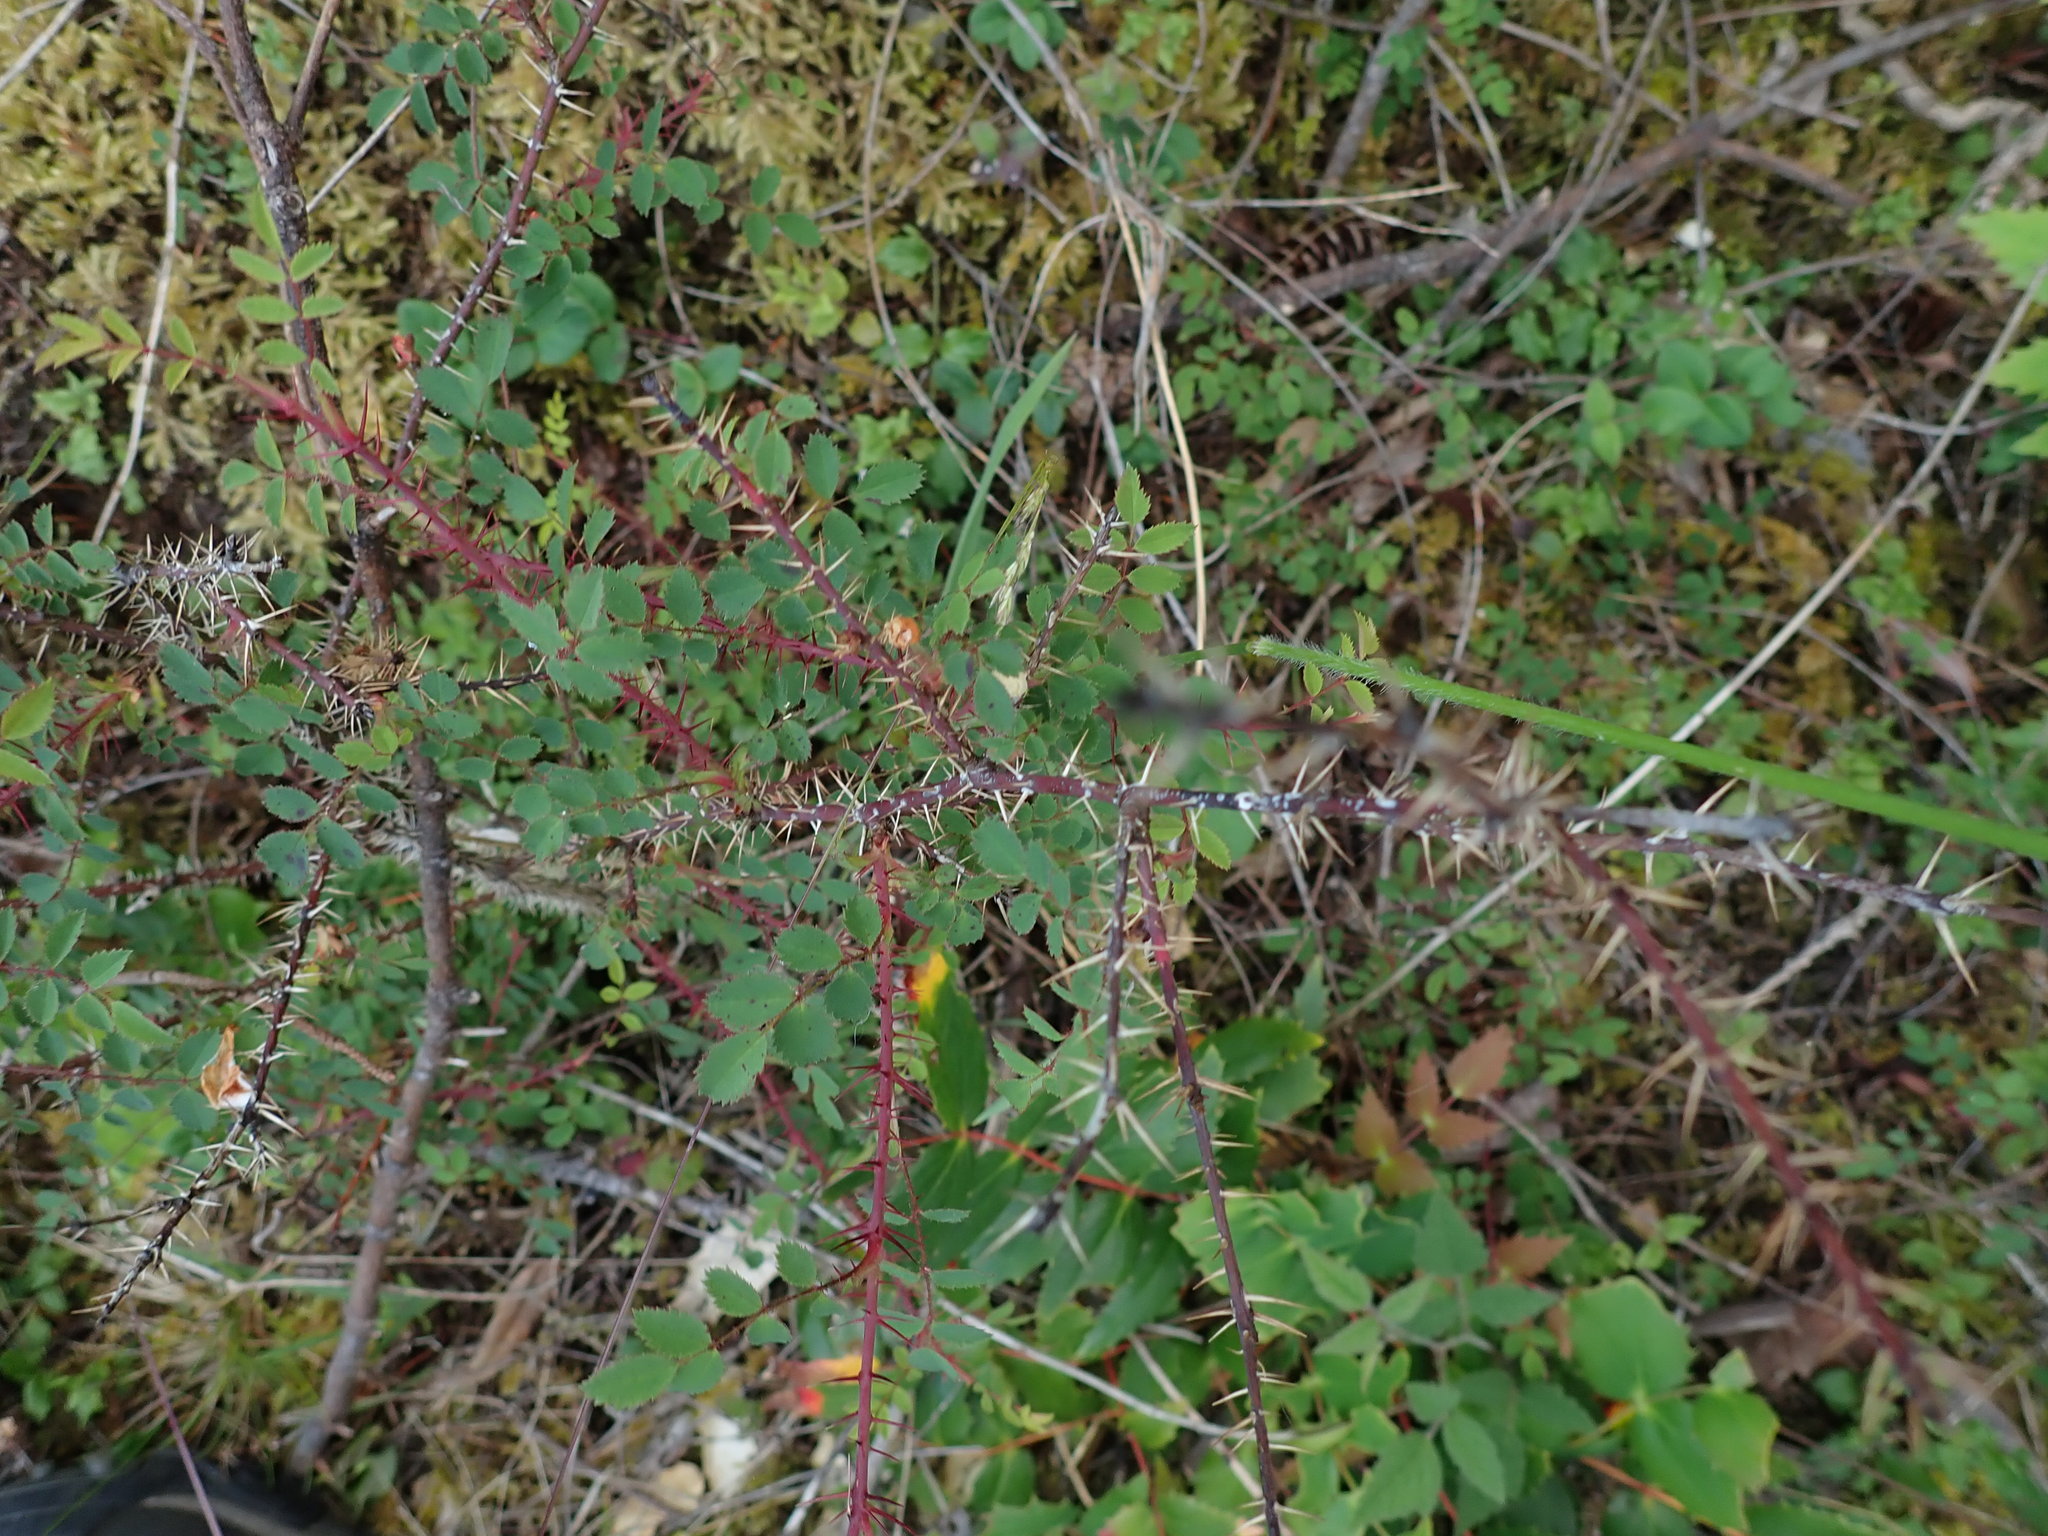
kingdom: Plantae
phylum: Tracheophyta
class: Magnoliopsida
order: Rosales
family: Rosaceae
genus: Rosa
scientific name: Rosa gymnocarpa
